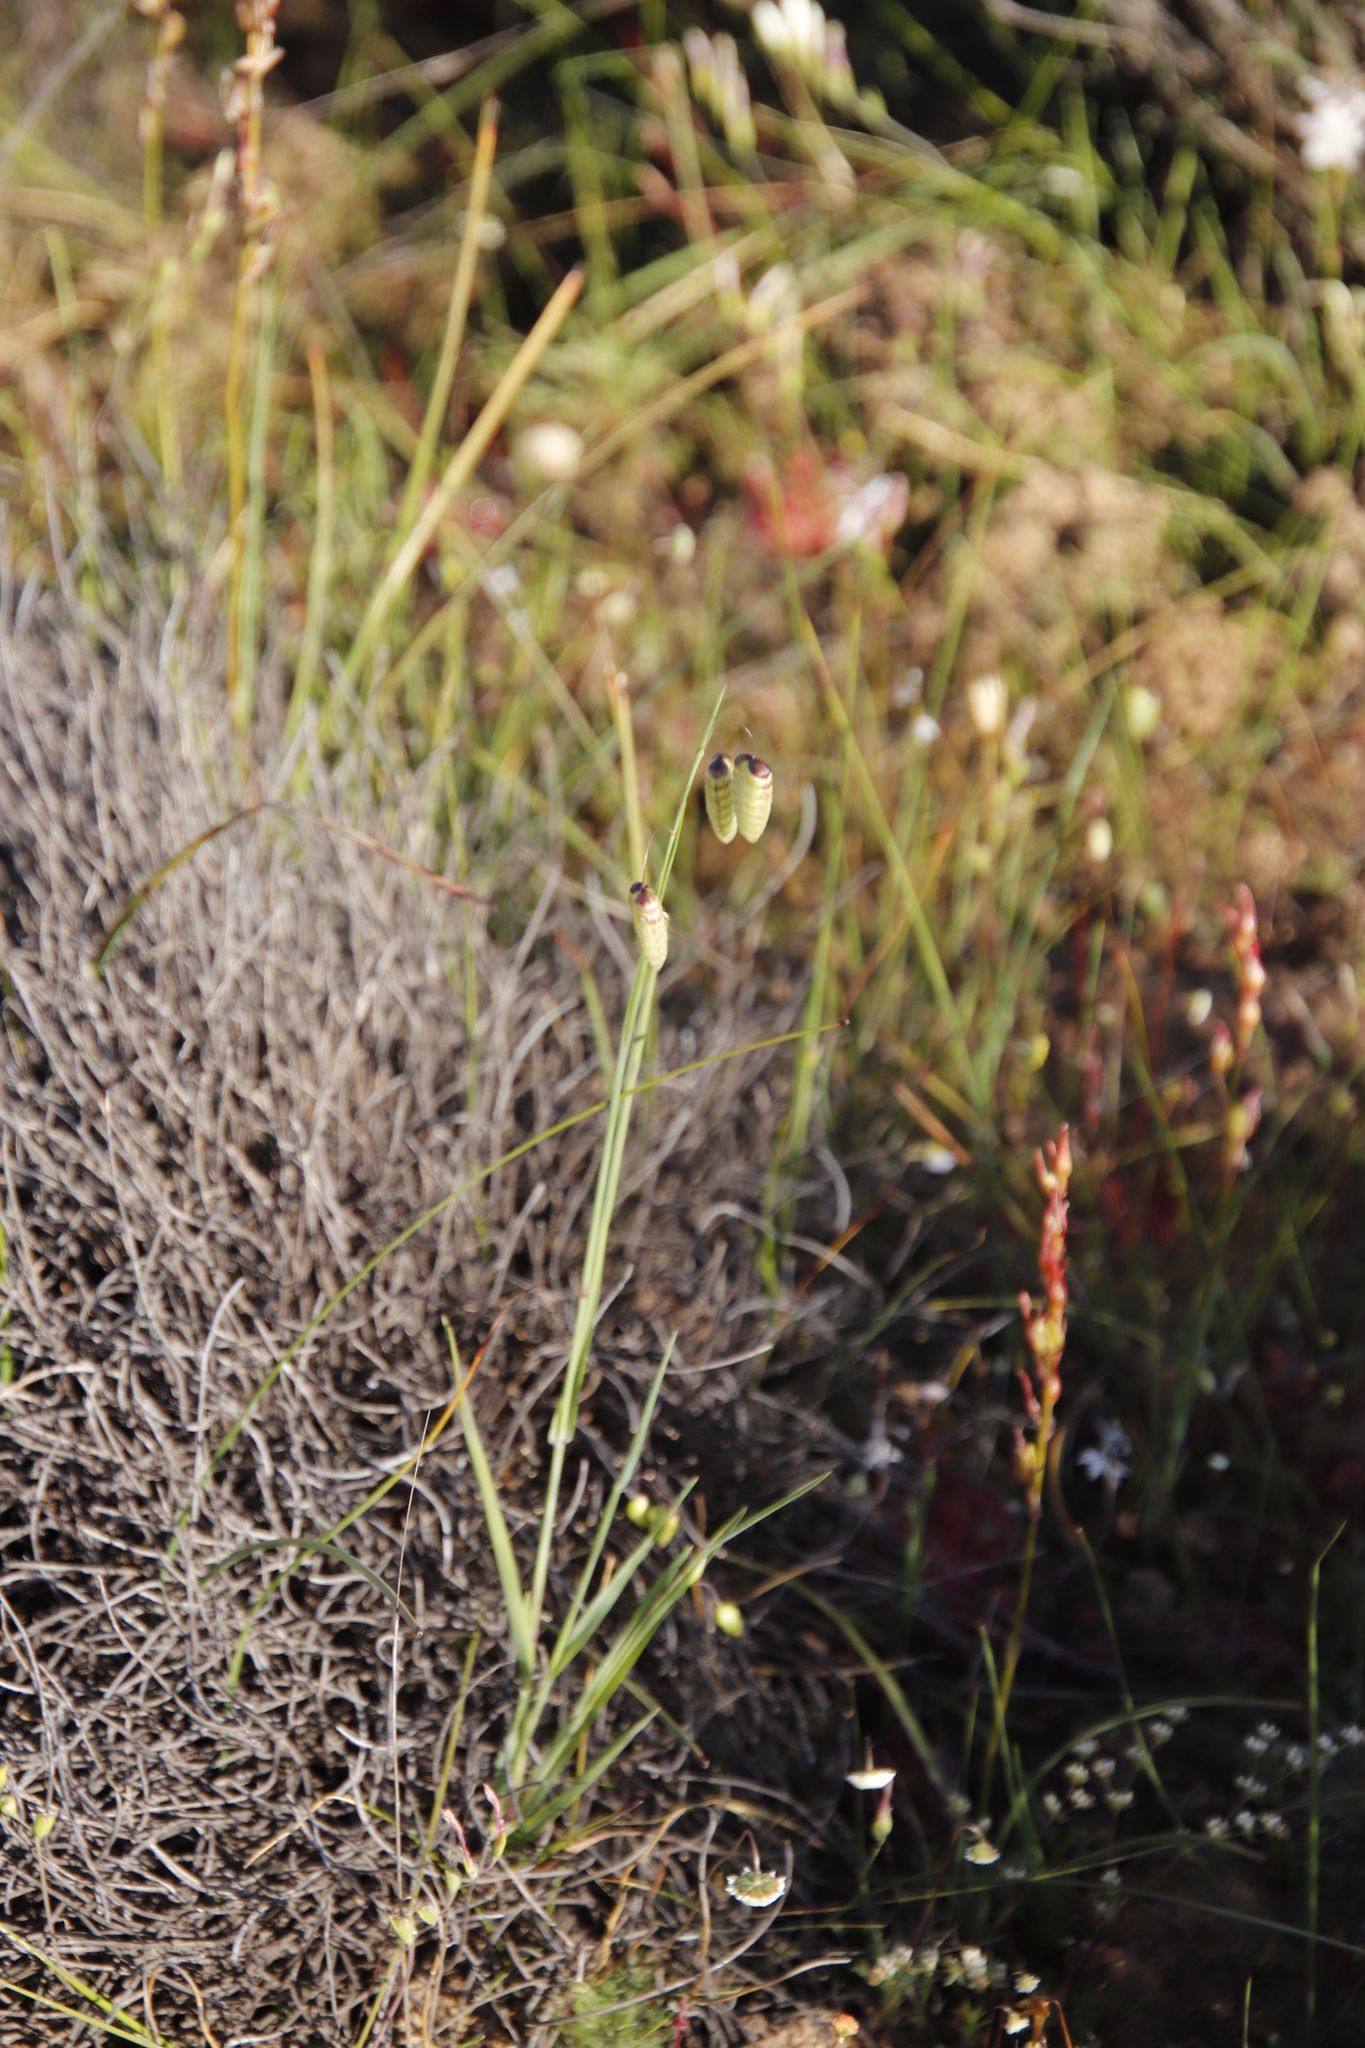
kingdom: Plantae
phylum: Tracheophyta
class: Liliopsida
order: Poales
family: Poaceae
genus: Briza
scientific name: Briza maxima
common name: Big quakinggrass
